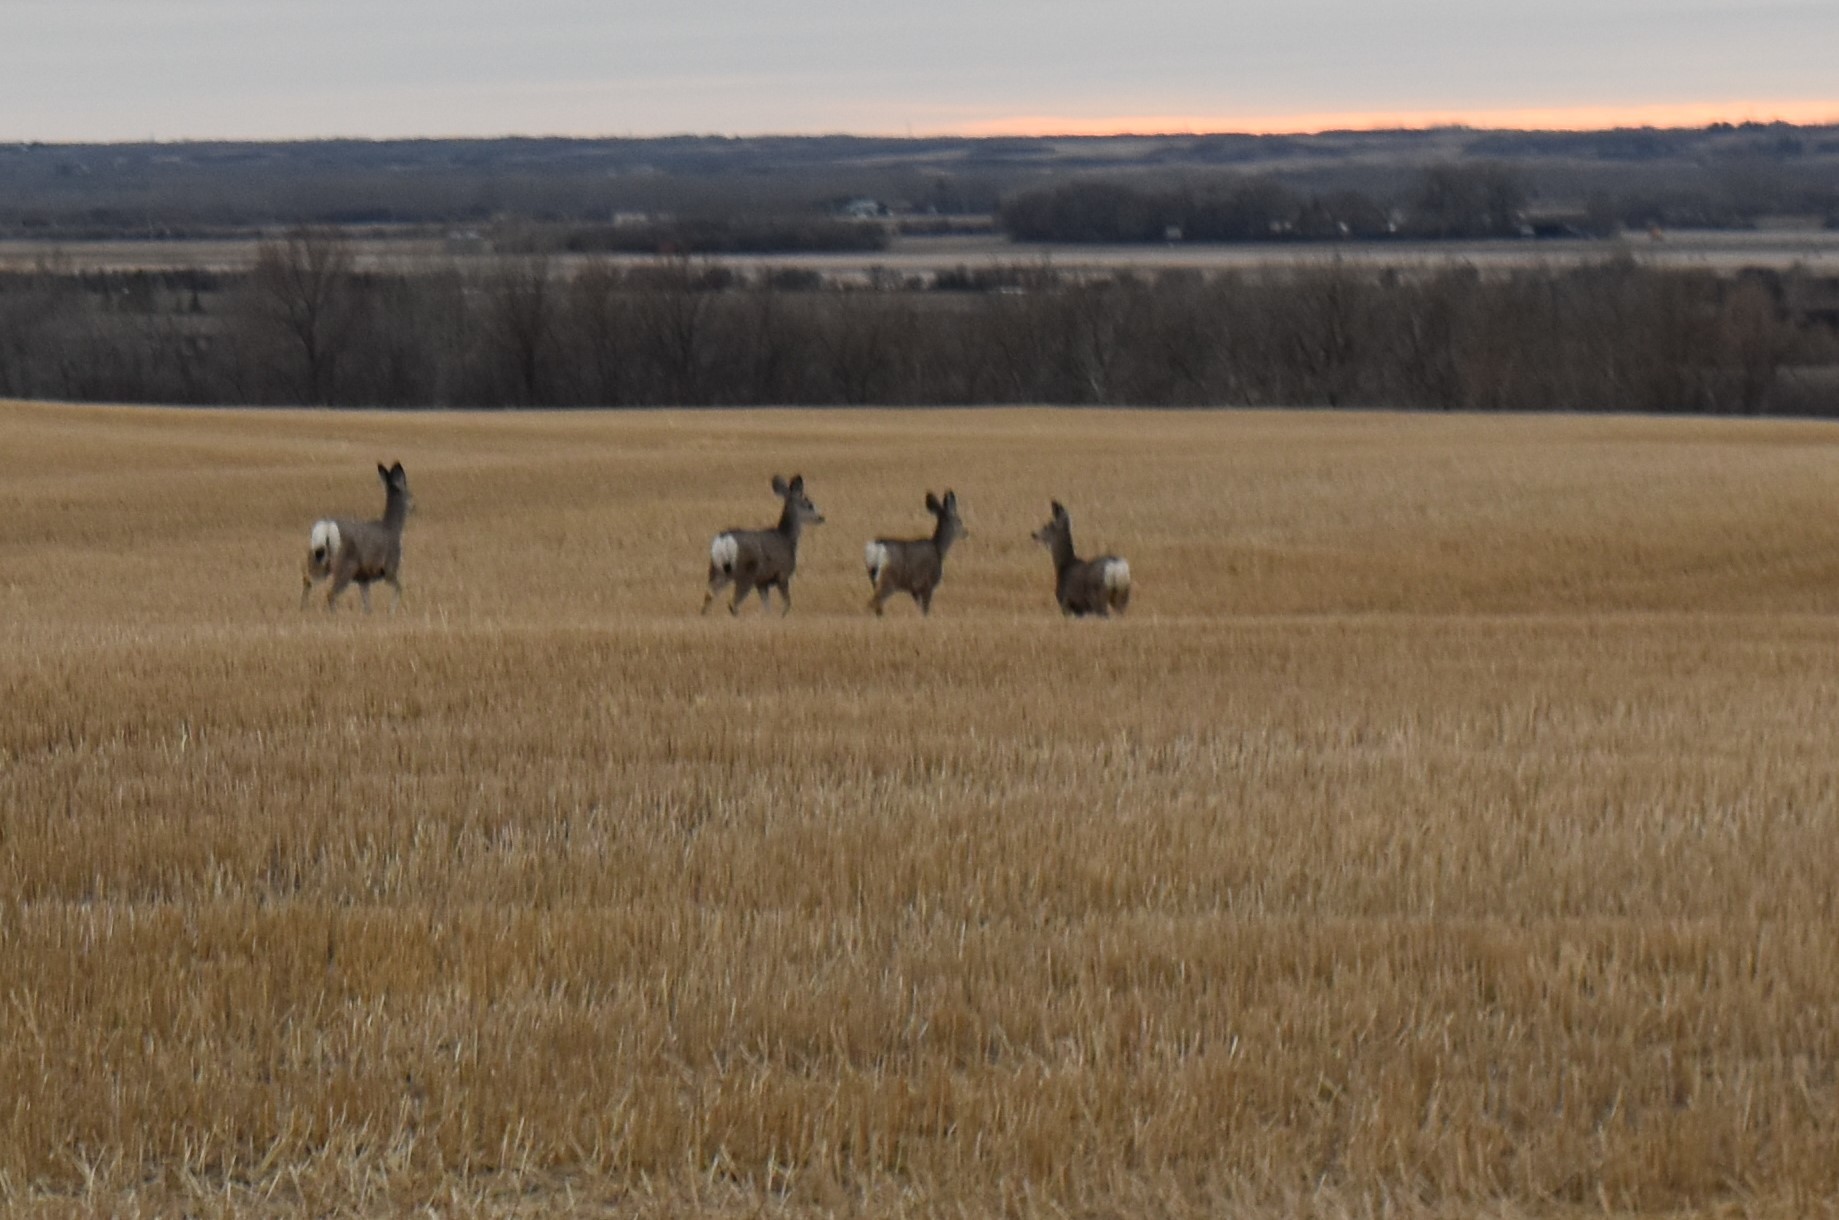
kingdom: Animalia
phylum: Chordata
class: Mammalia
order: Artiodactyla
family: Cervidae
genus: Odocoileus
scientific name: Odocoileus hemionus
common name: Mule deer
